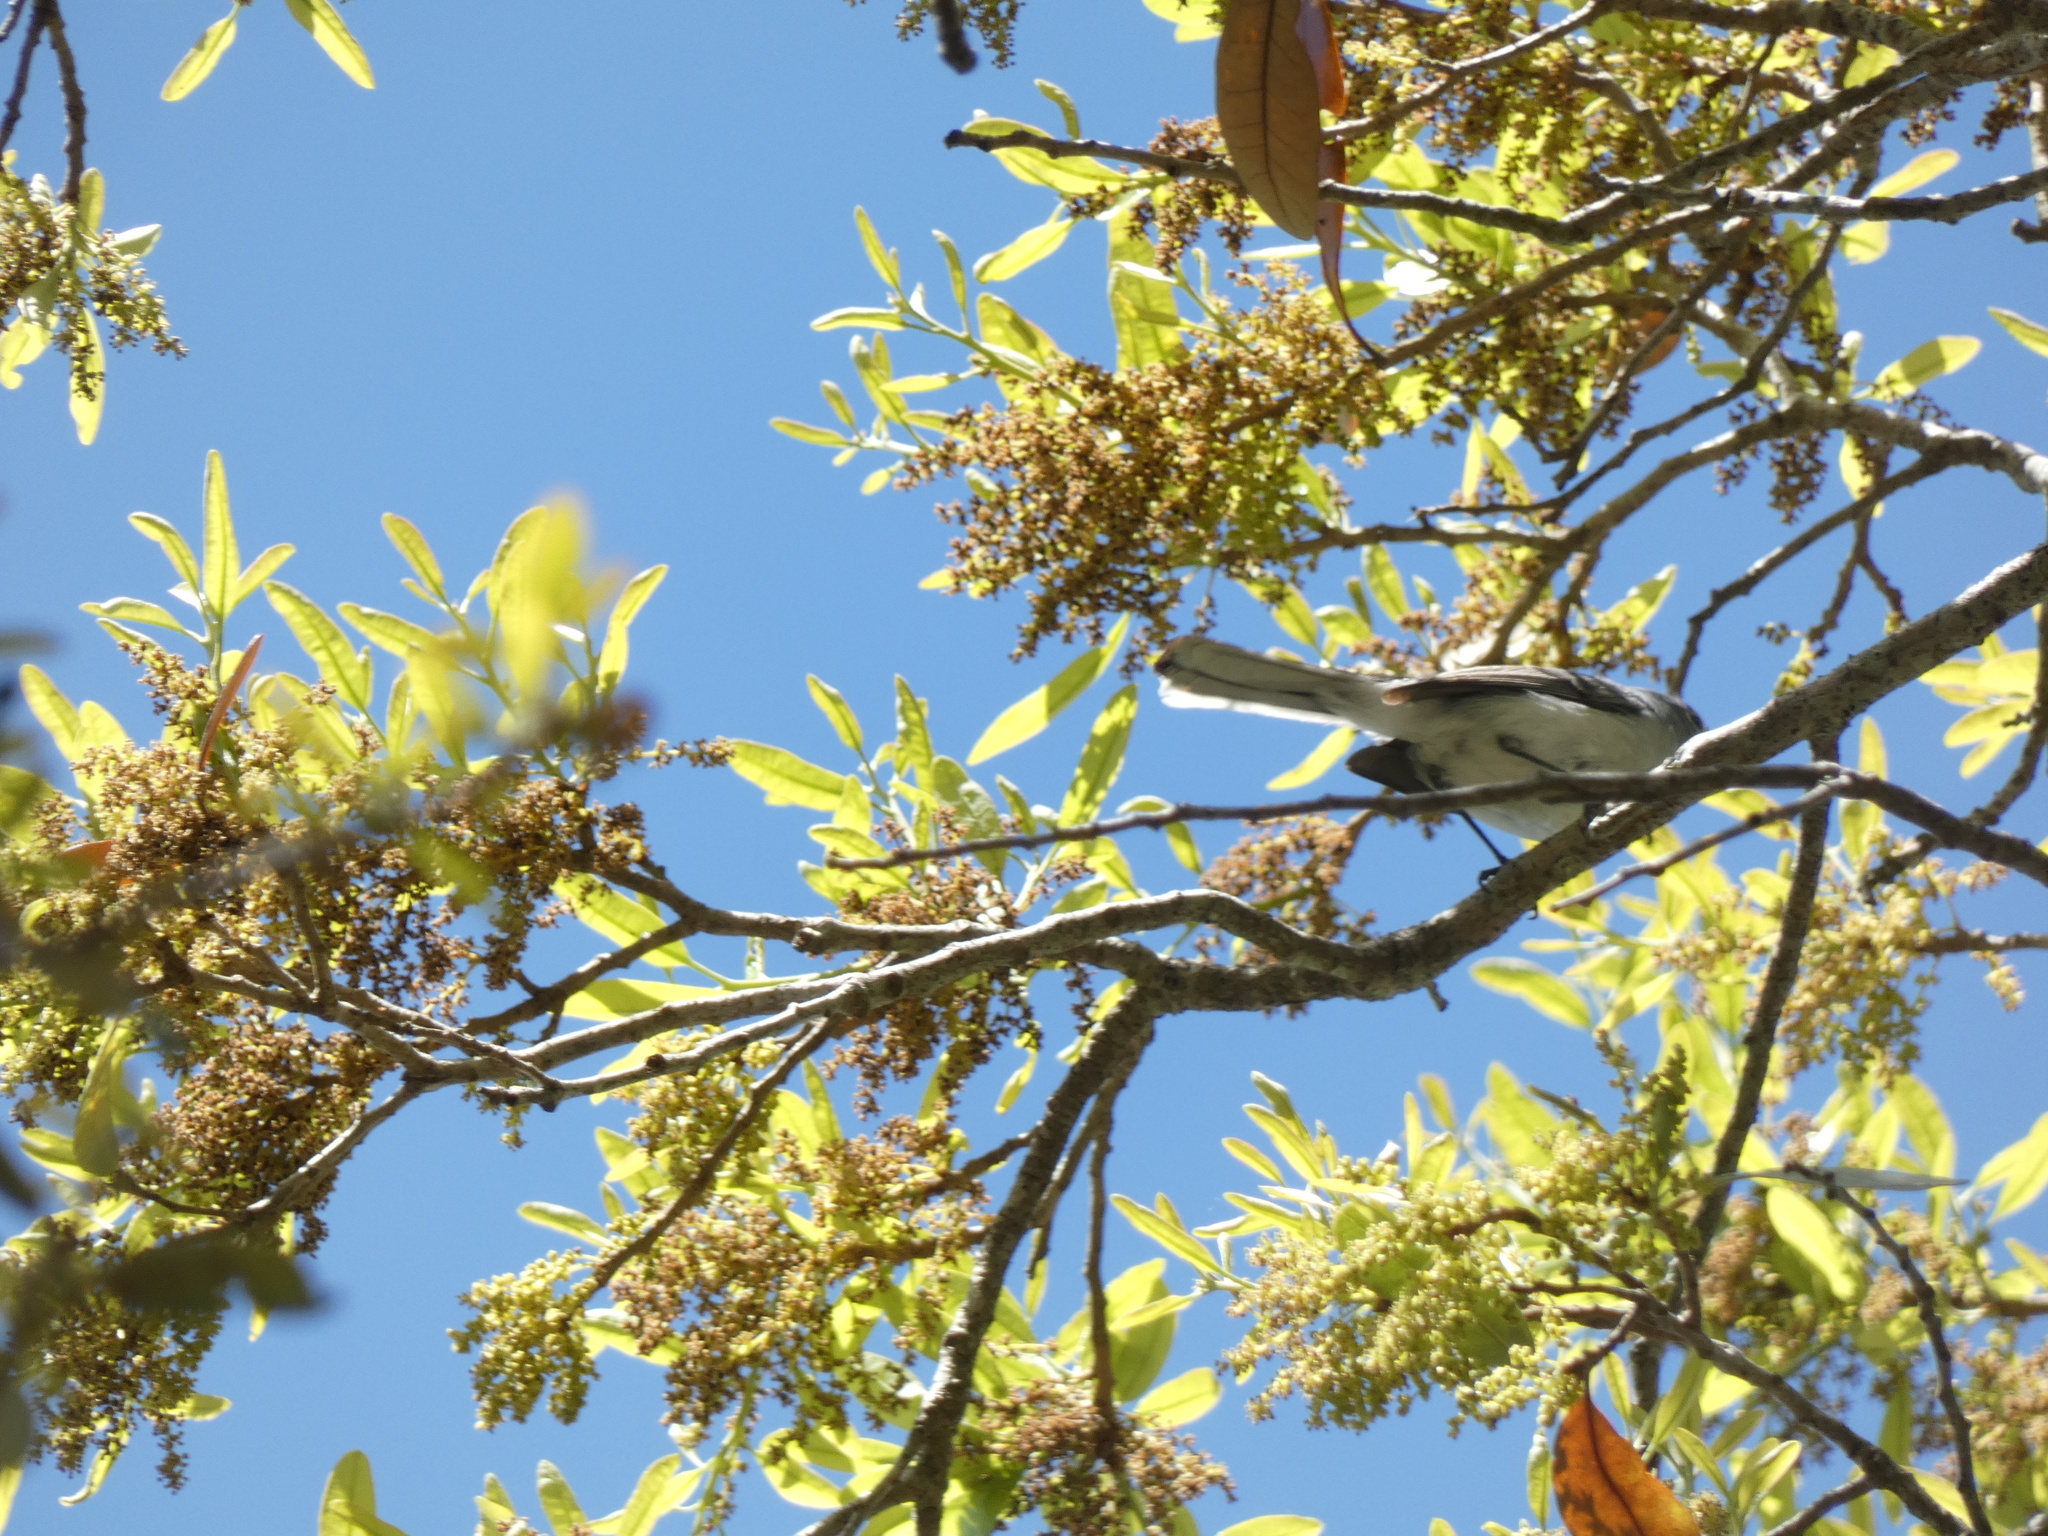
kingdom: Animalia
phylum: Chordata
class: Aves
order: Passeriformes
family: Polioptilidae
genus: Polioptila
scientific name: Polioptila caerulea
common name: Blue-gray gnatcatcher
